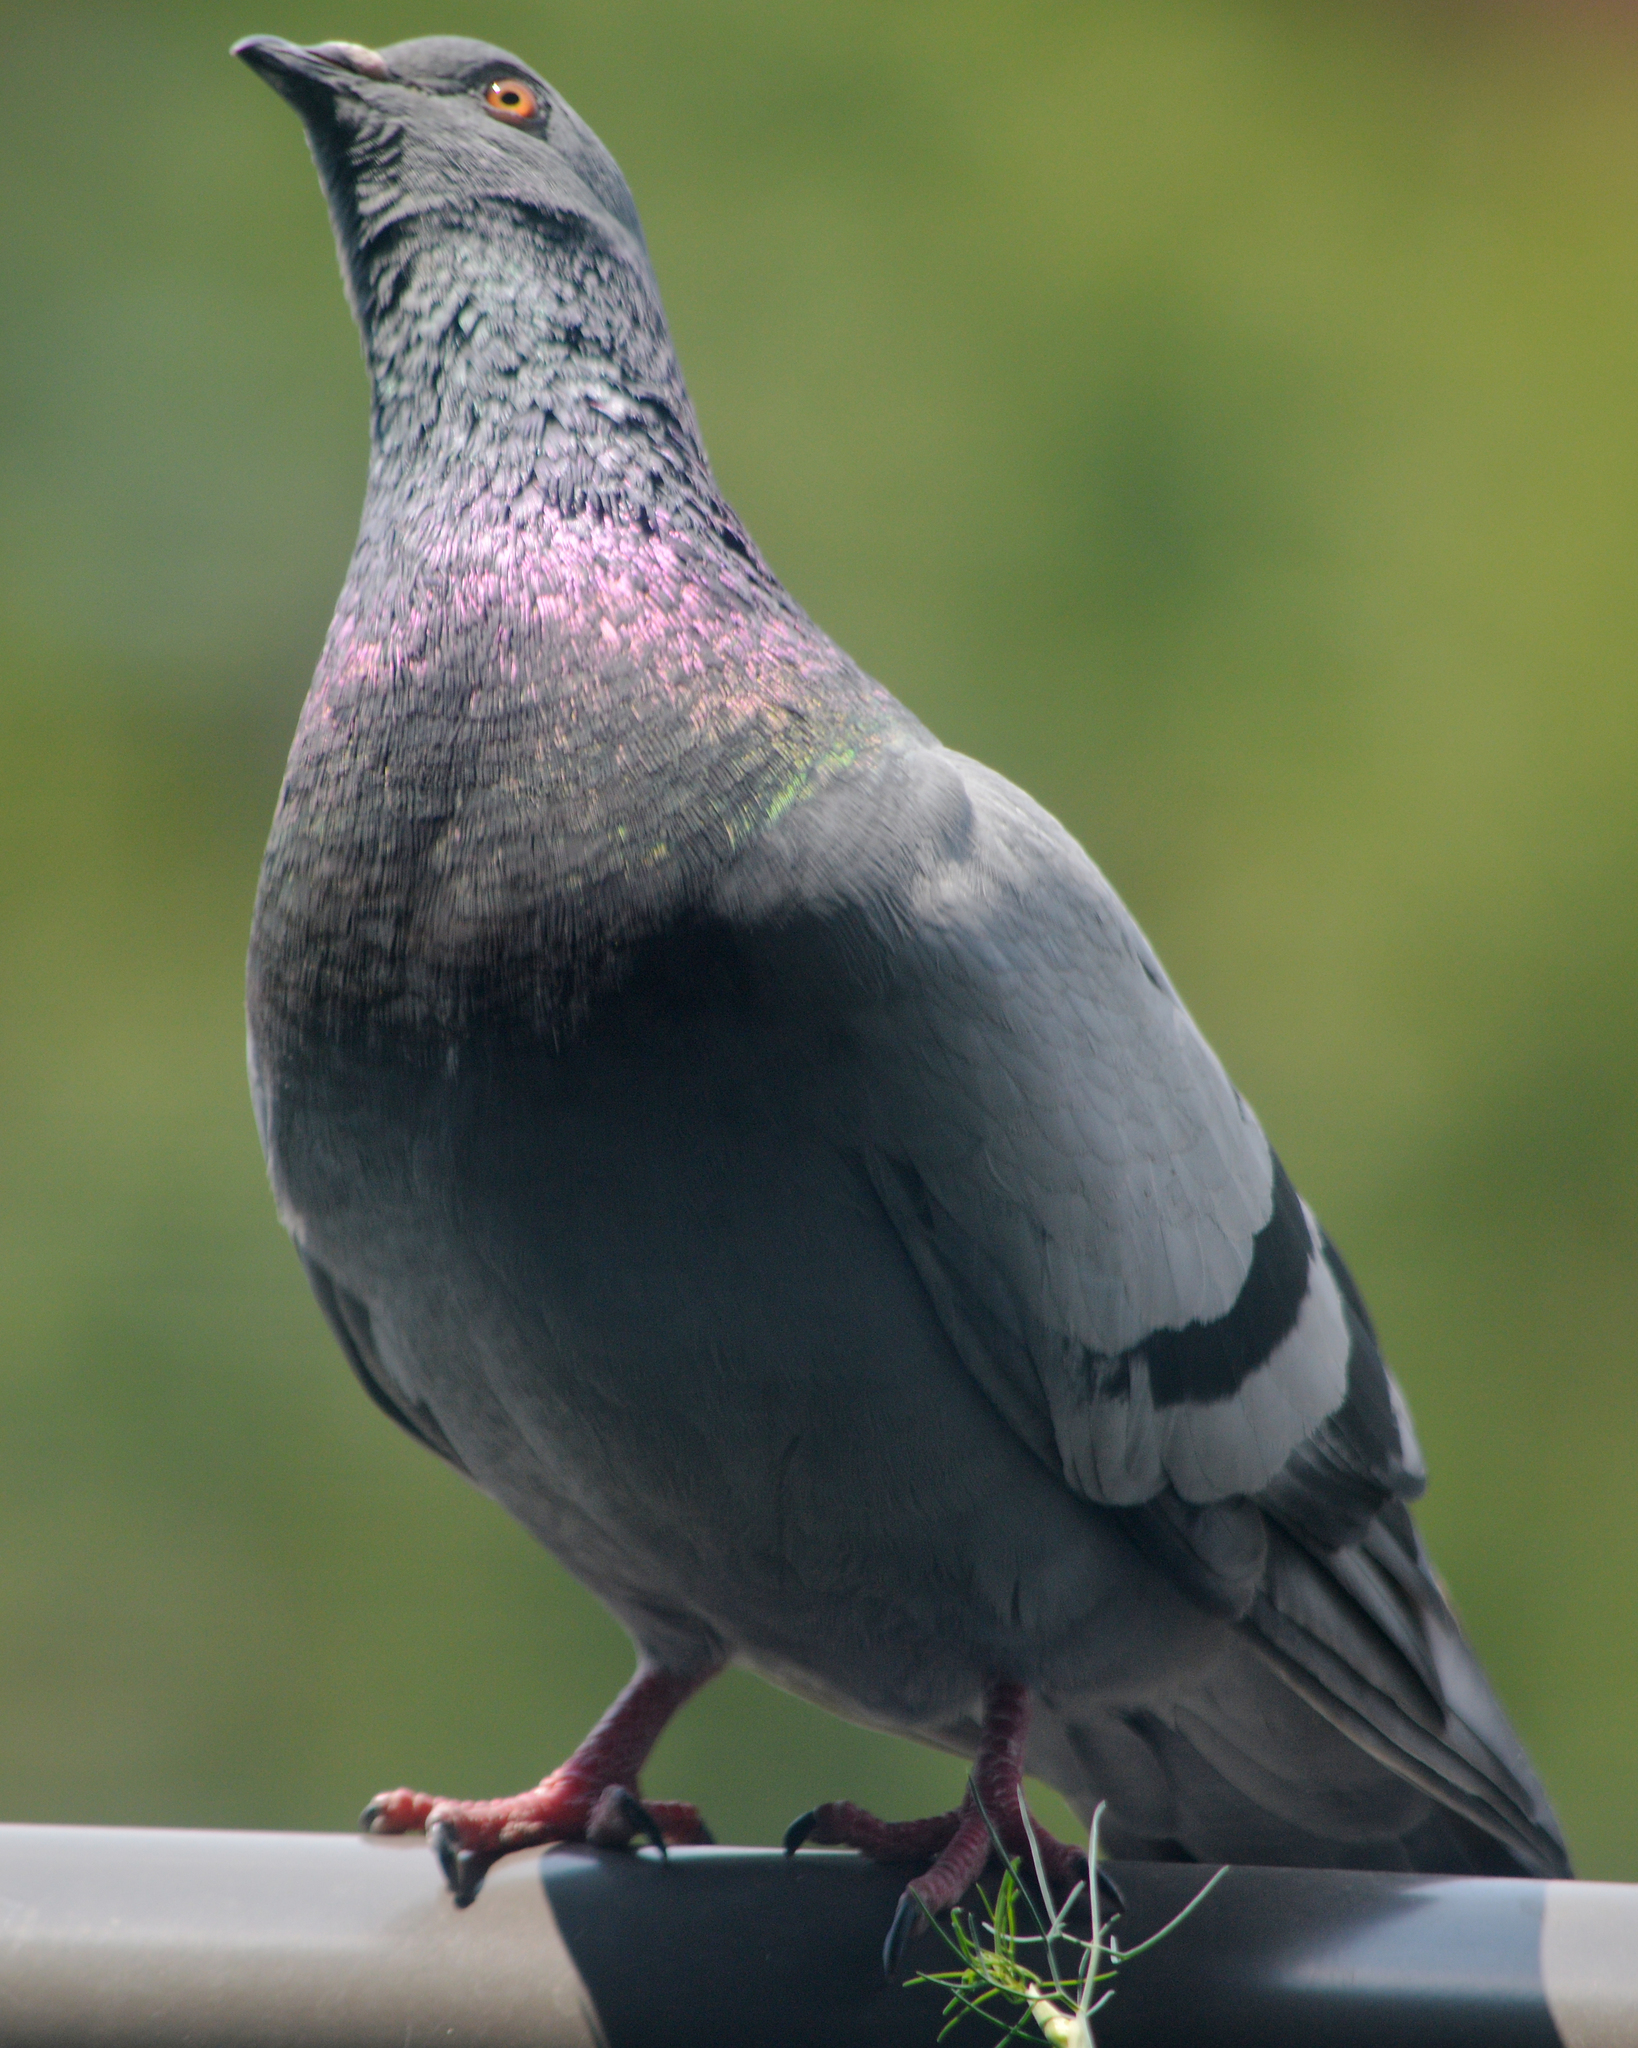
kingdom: Animalia
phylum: Chordata
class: Aves
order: Columbiformes
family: Columbidae
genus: Columba
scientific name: Columba livia
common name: Rock pigeon
